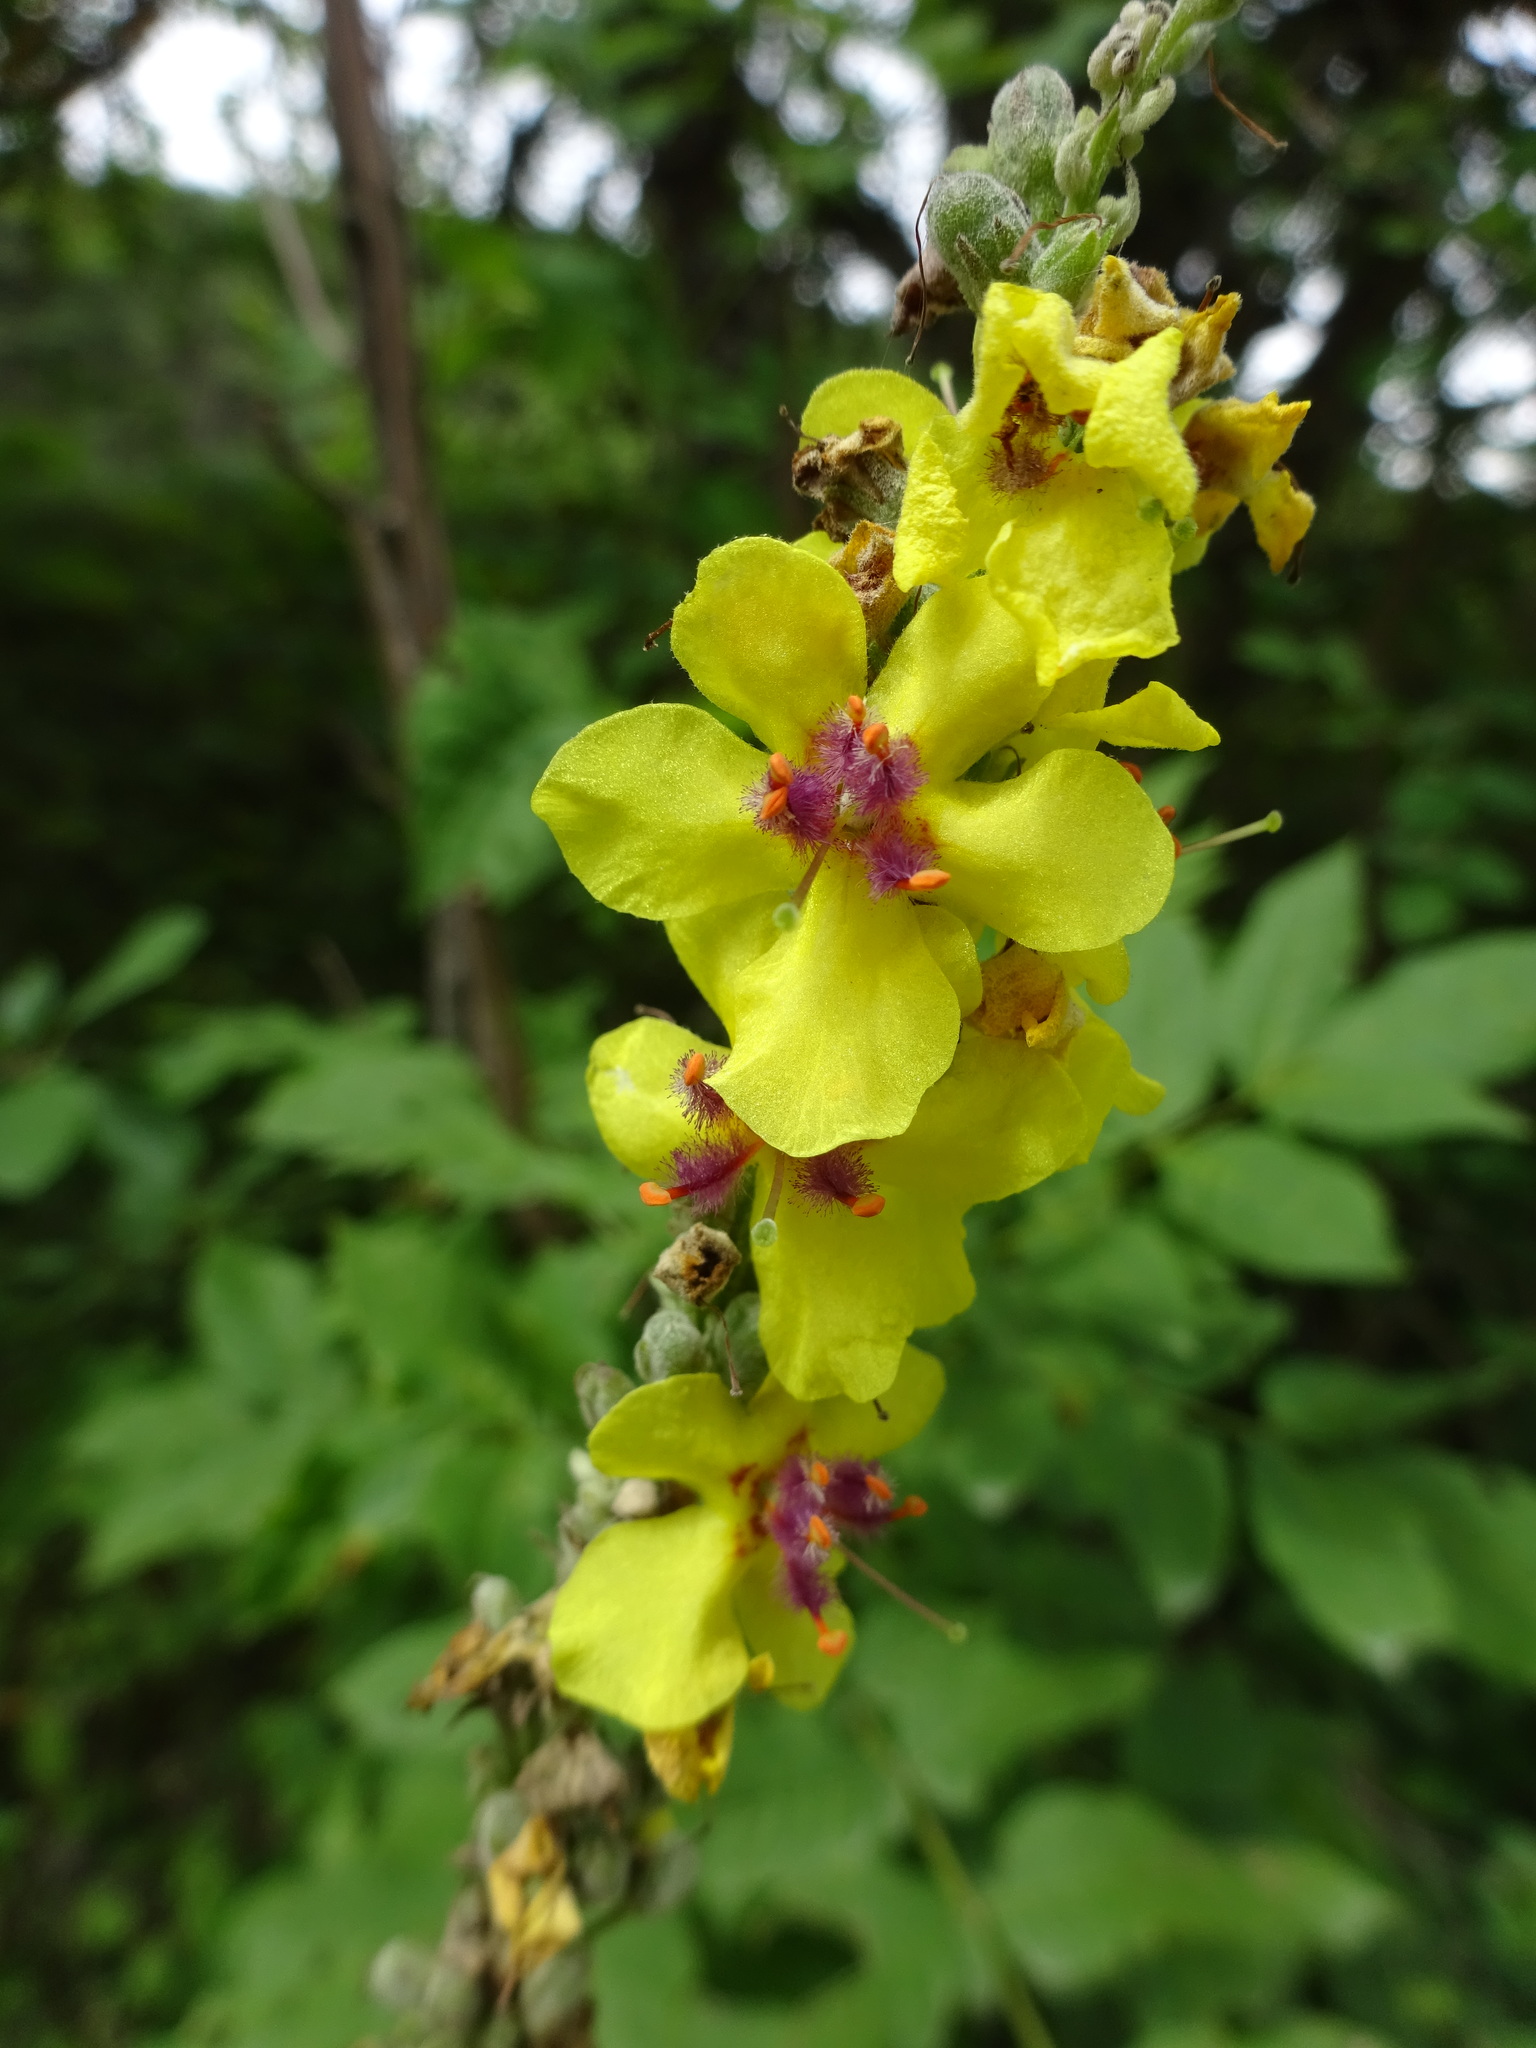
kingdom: Plantae
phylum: Tracheophyta
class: Magnoliopsida
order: Lamiales
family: Scrophulariaceae
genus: Verbascum
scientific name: Verbascum nigrum
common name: Dark mullein
